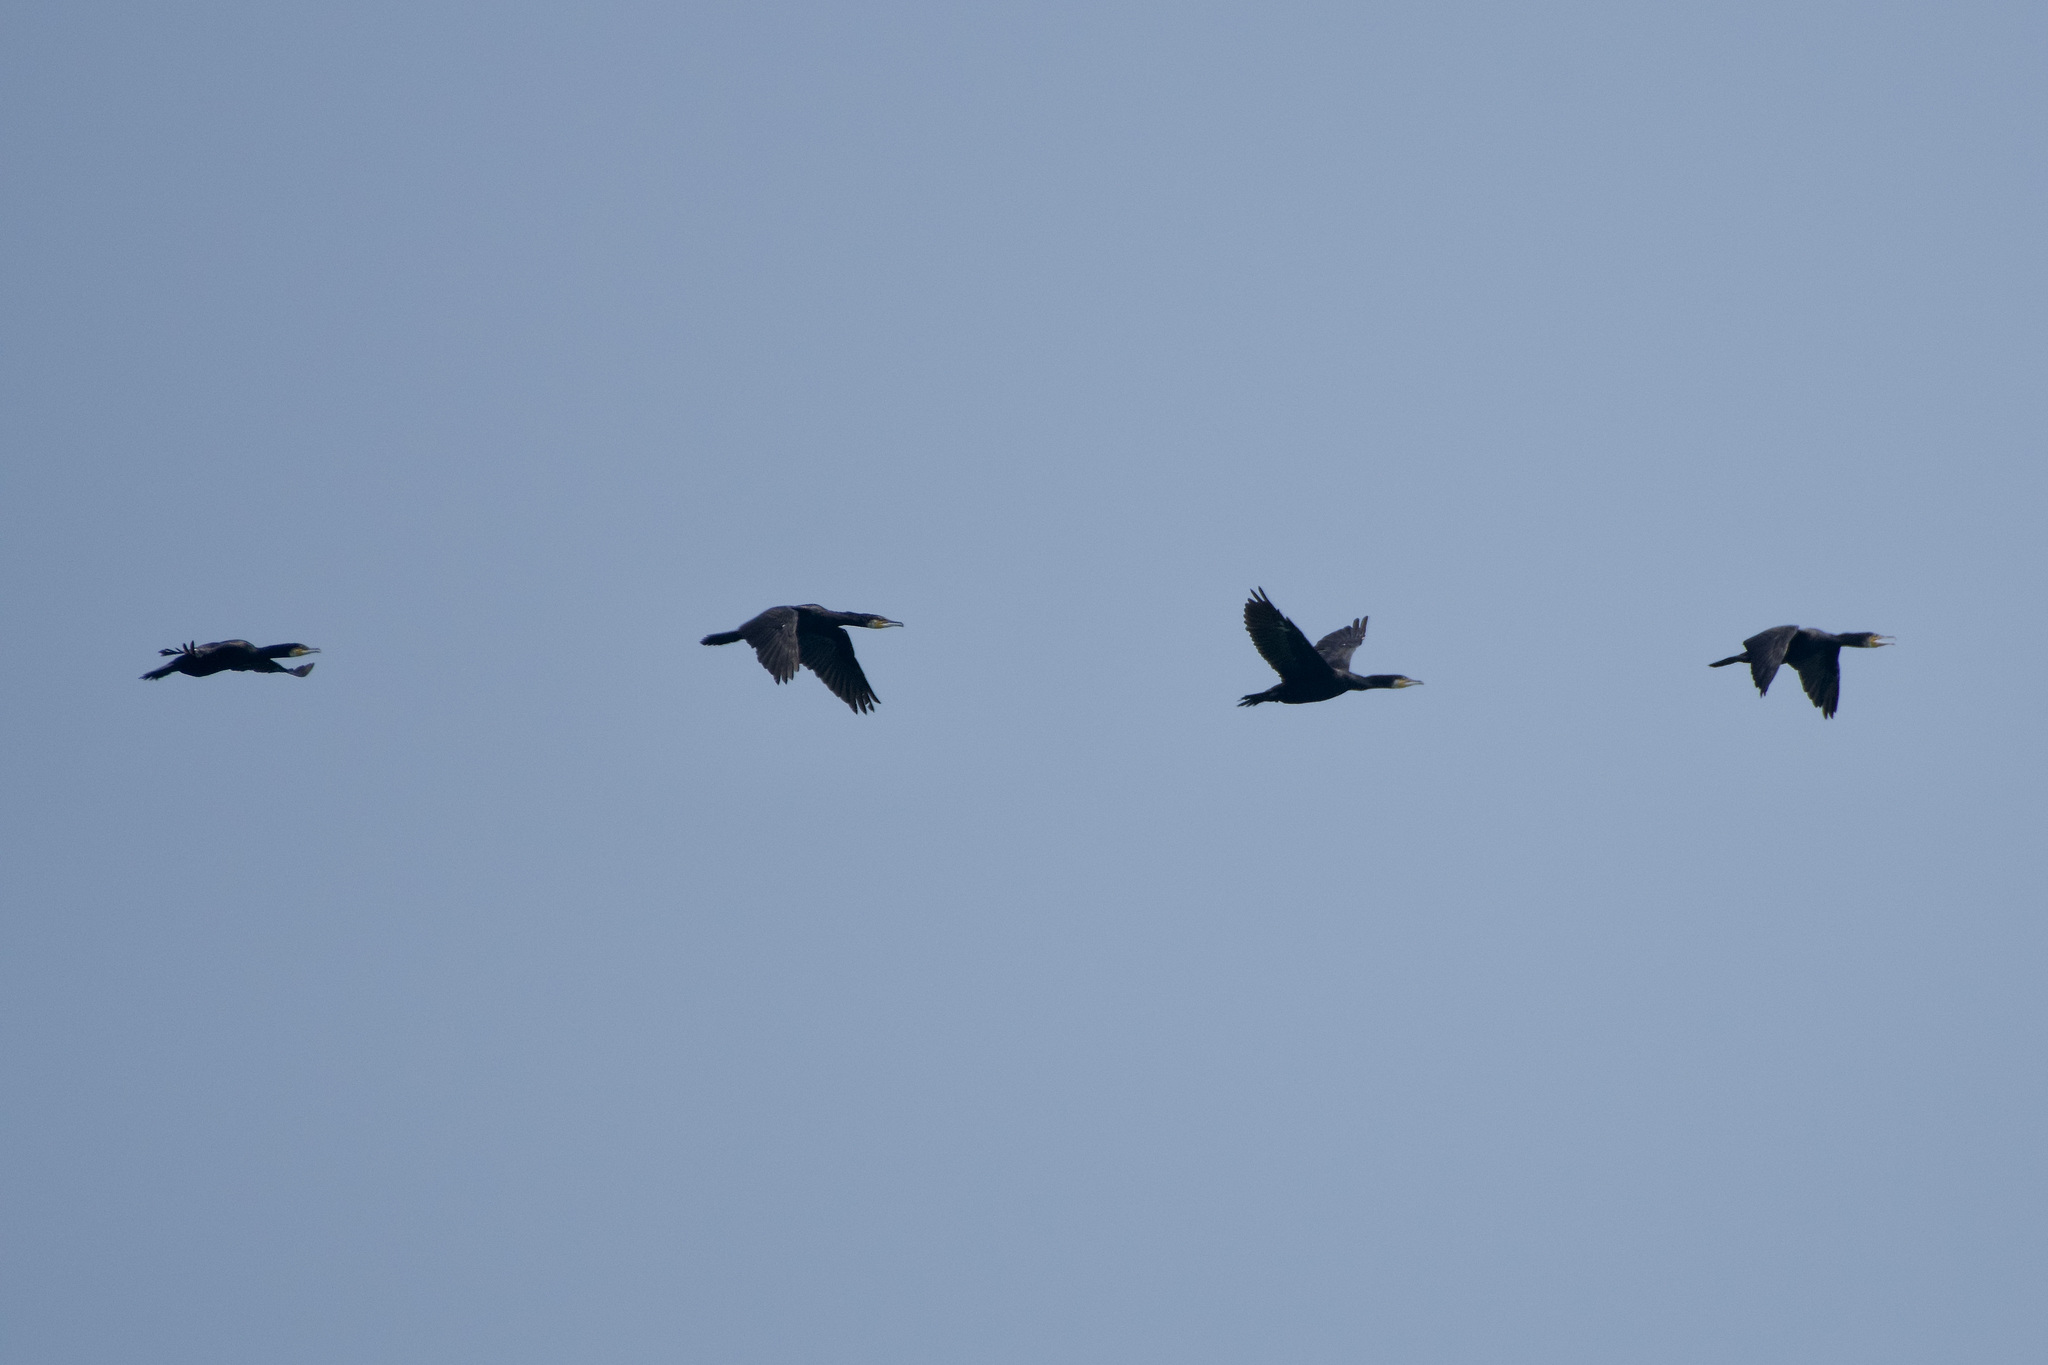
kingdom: Animalia
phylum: Chordata
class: Aves
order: Suliformes
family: Phalacrocoracidae
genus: Phalacrocorax
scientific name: Phalacrocorax carbo
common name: Great cormorant
